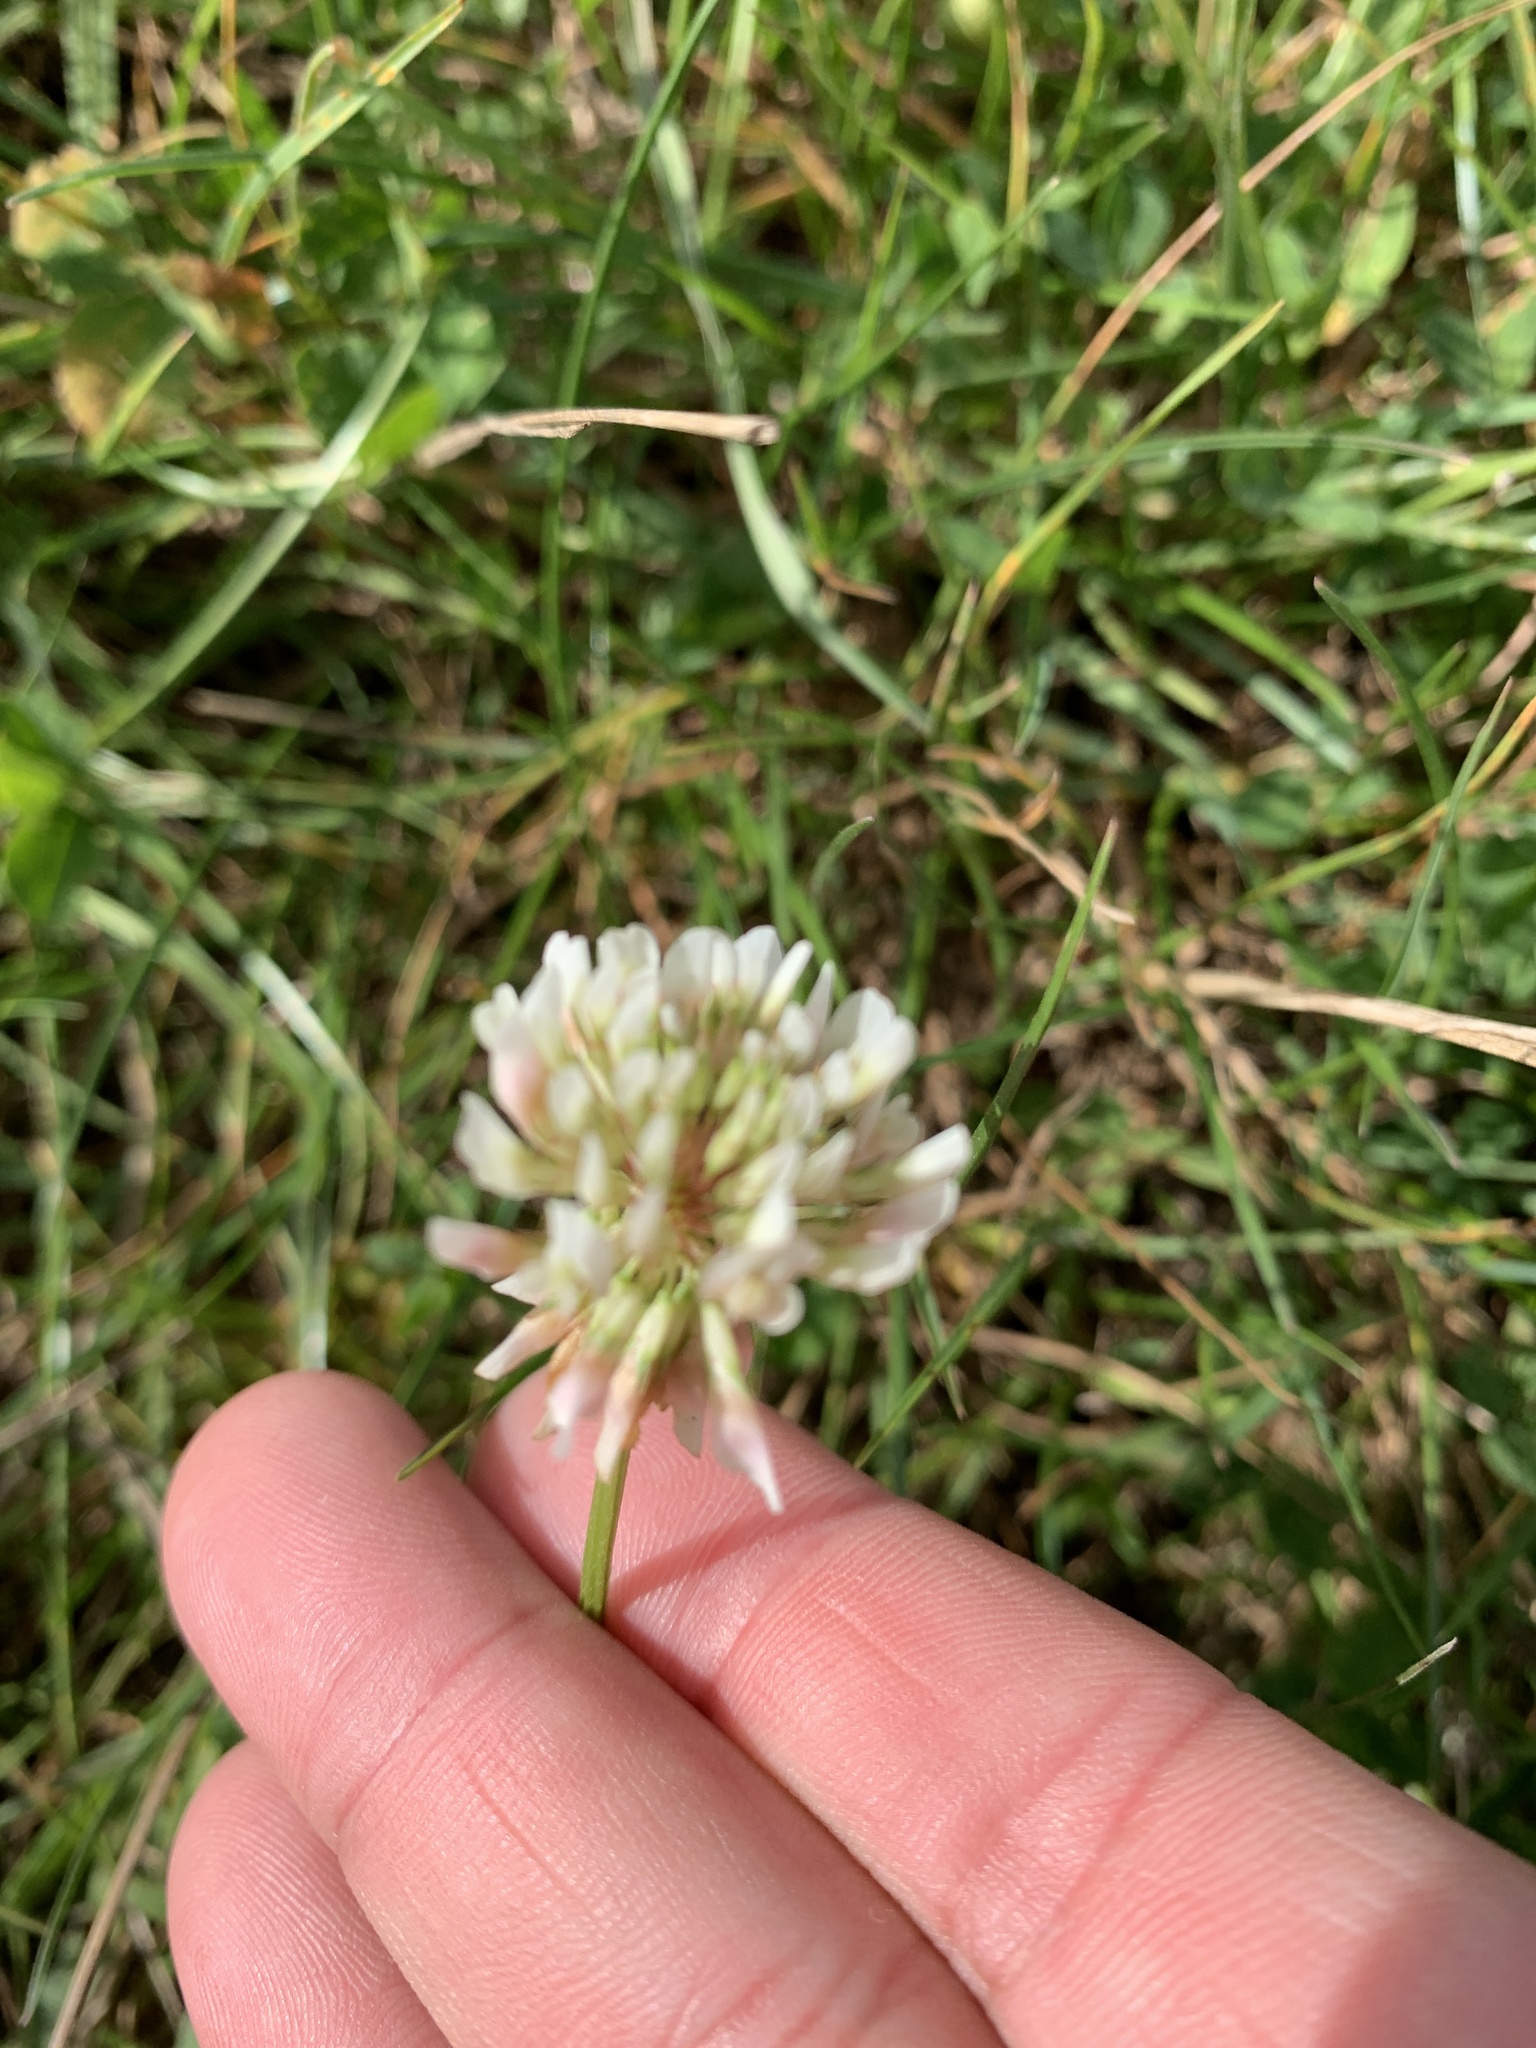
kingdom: Plantae
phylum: Tracheophyta
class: Magnoliopsida
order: Fabales
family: Fabaceae
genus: Trifolium
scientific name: Trifolium repens
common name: White clover
